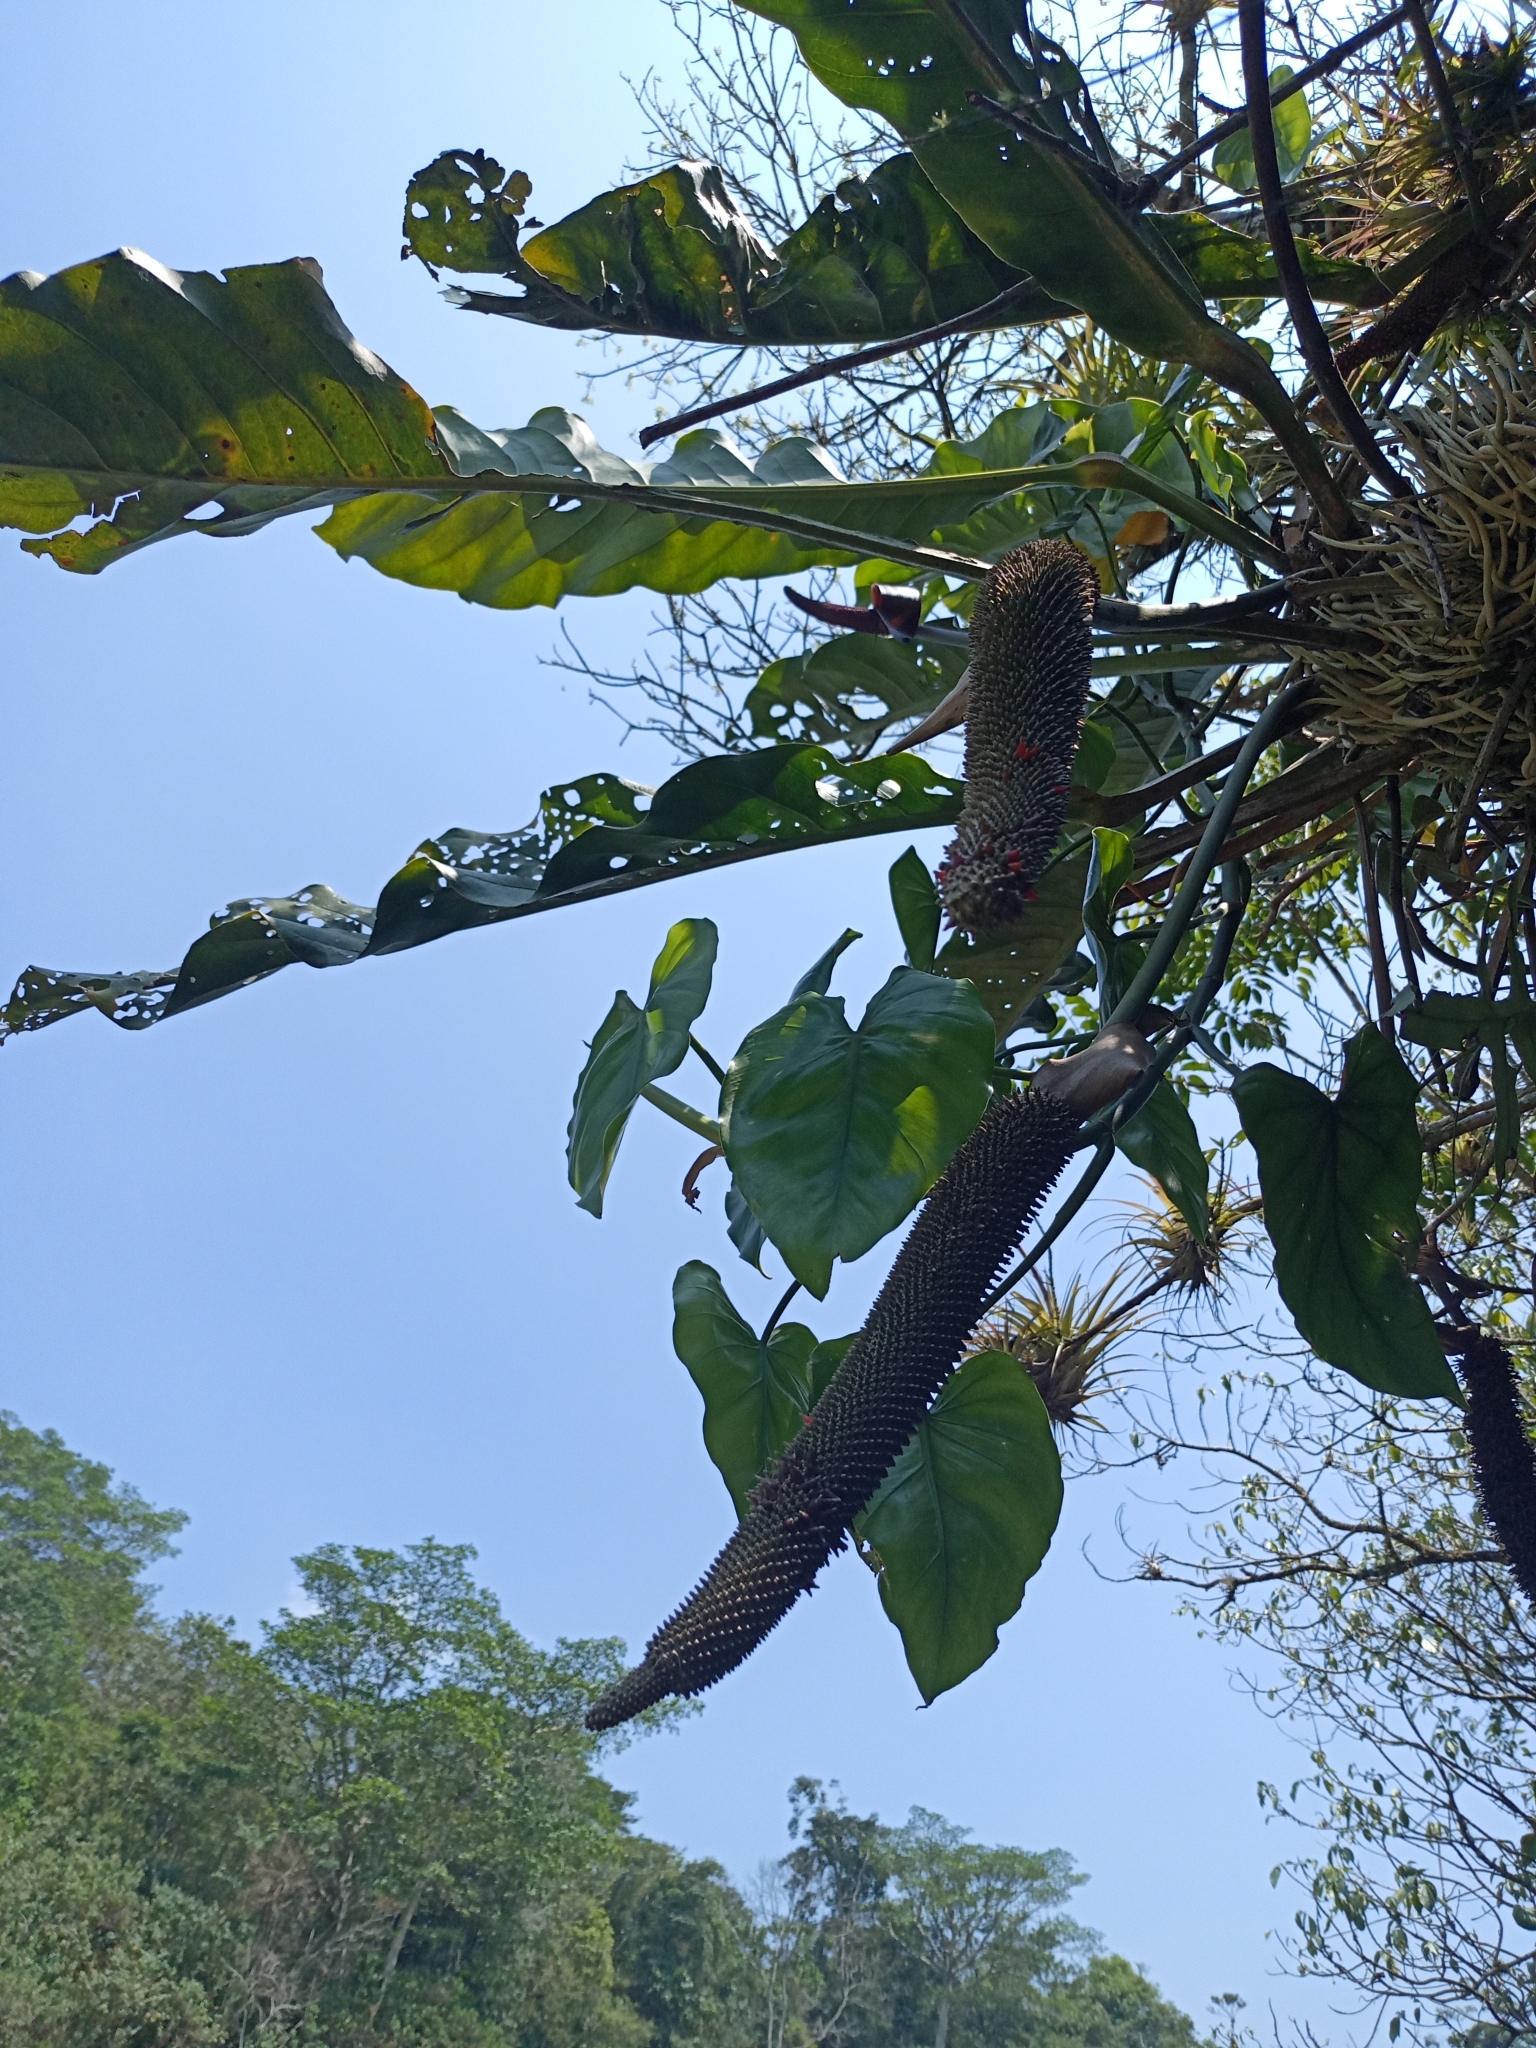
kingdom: Plantae
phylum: Tracheophyta
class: Liliopsida
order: Alismatales
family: Araceae
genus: Anthurium
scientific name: Anthurium schlechtendalii
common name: Laceleaf
